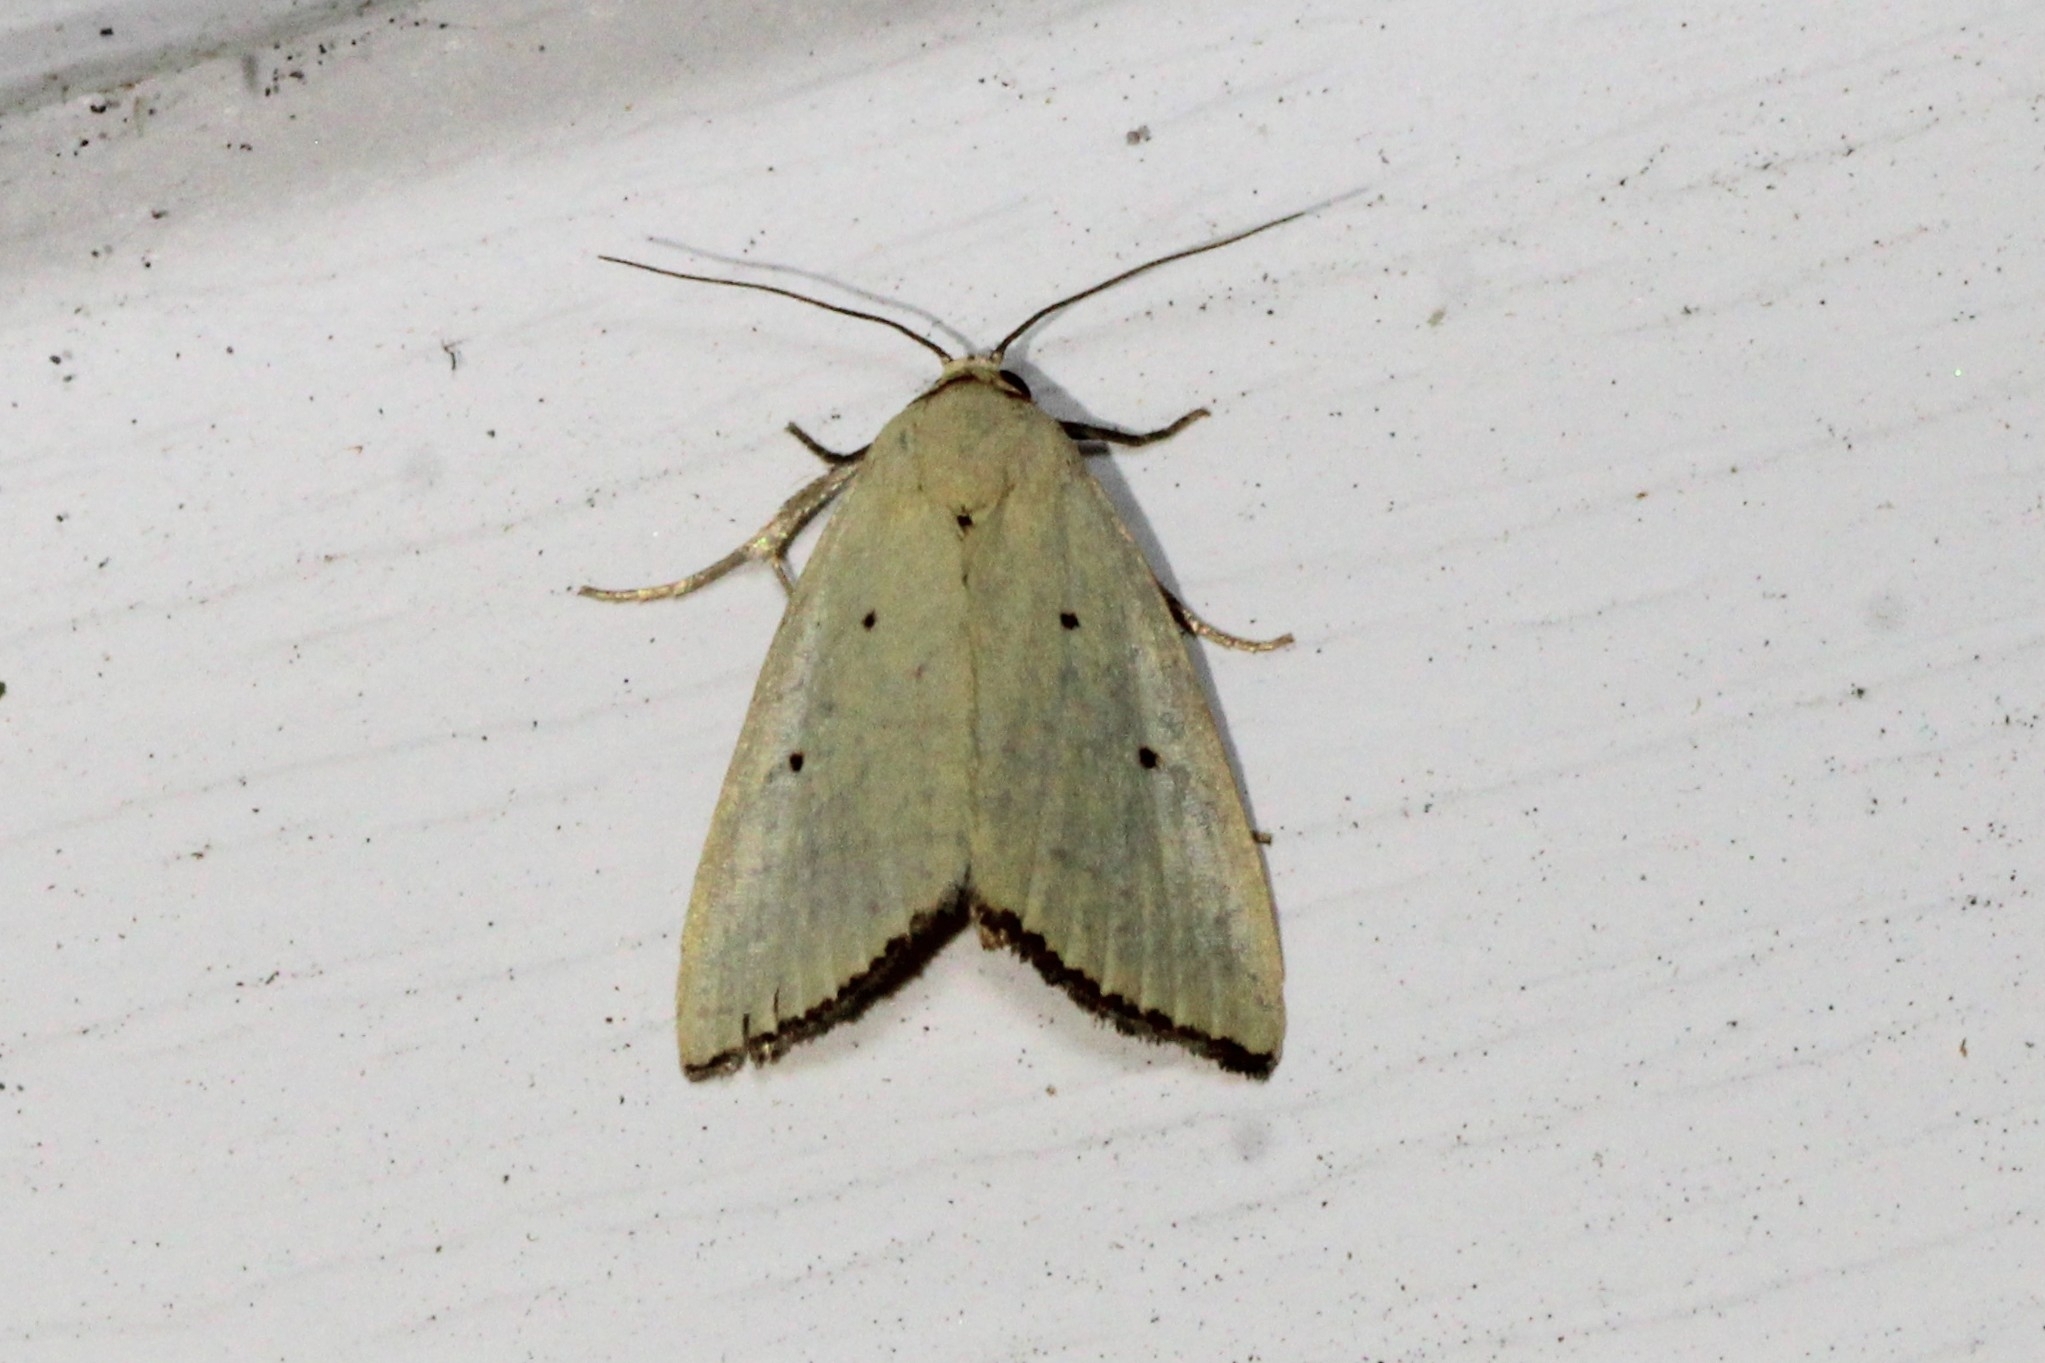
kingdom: Animalia
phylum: Arthropoda
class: Insecta
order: Lepidoptera
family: Noctuidae
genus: Marimatha
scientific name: Marimatha nigrofimbria
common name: Black-bordered lemon moth
